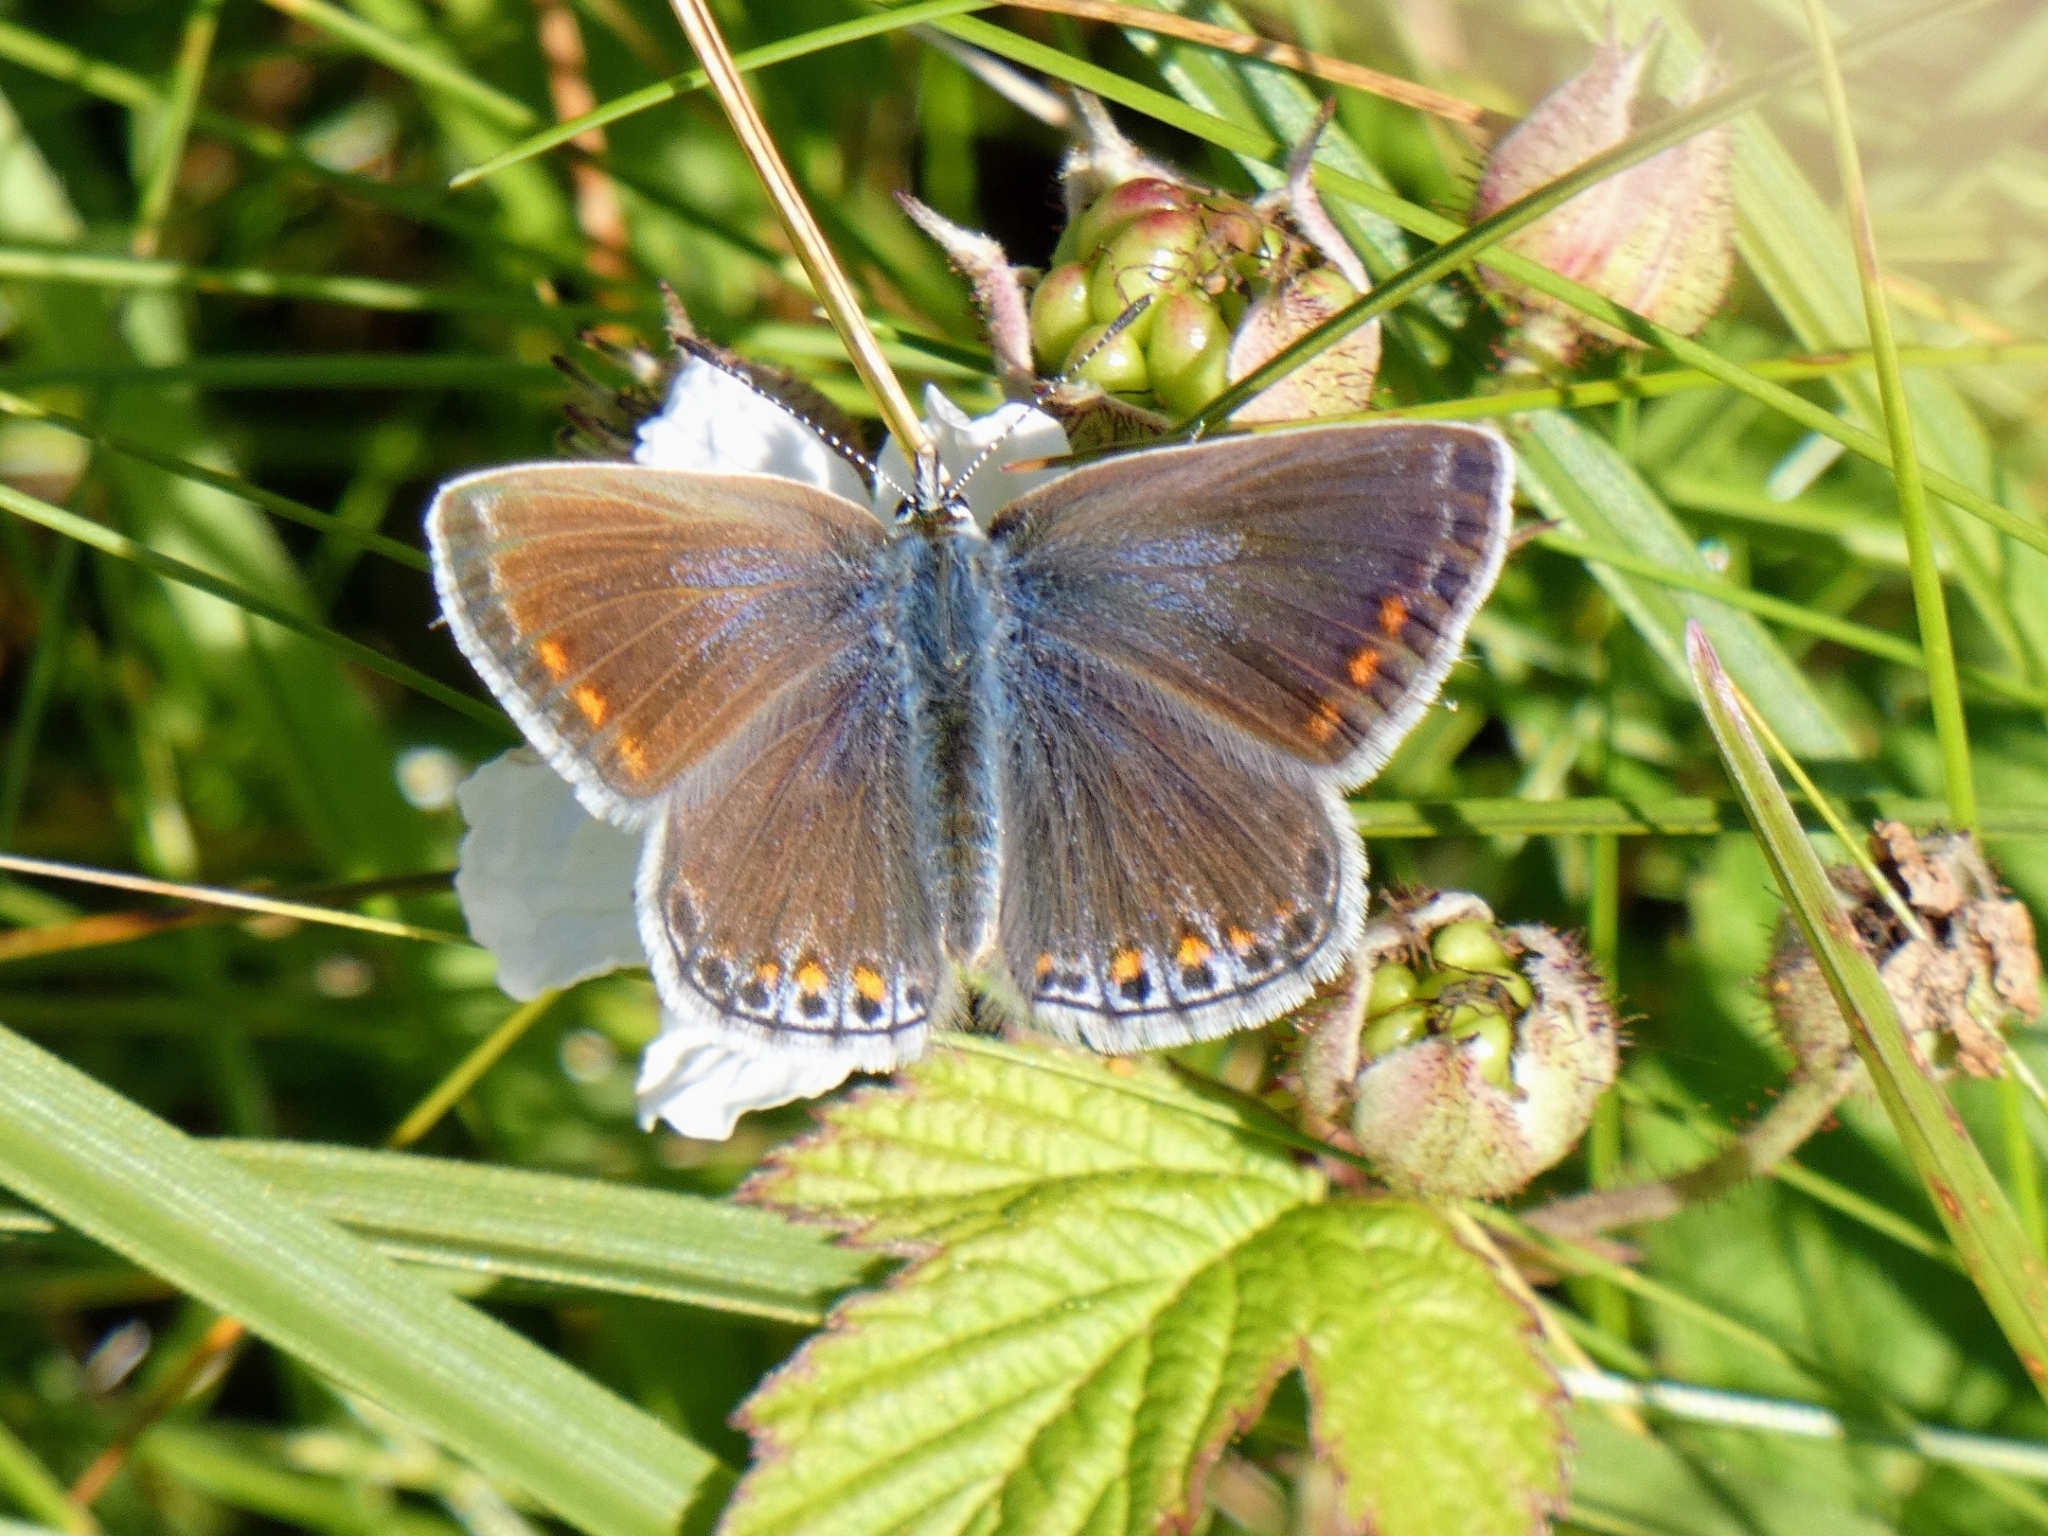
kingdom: Animalia
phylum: Arthropoda
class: Insecta
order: Lepidoptera
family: Lycaenidae
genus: Polyommatus
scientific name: Polyommatus icarus
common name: Common blue
